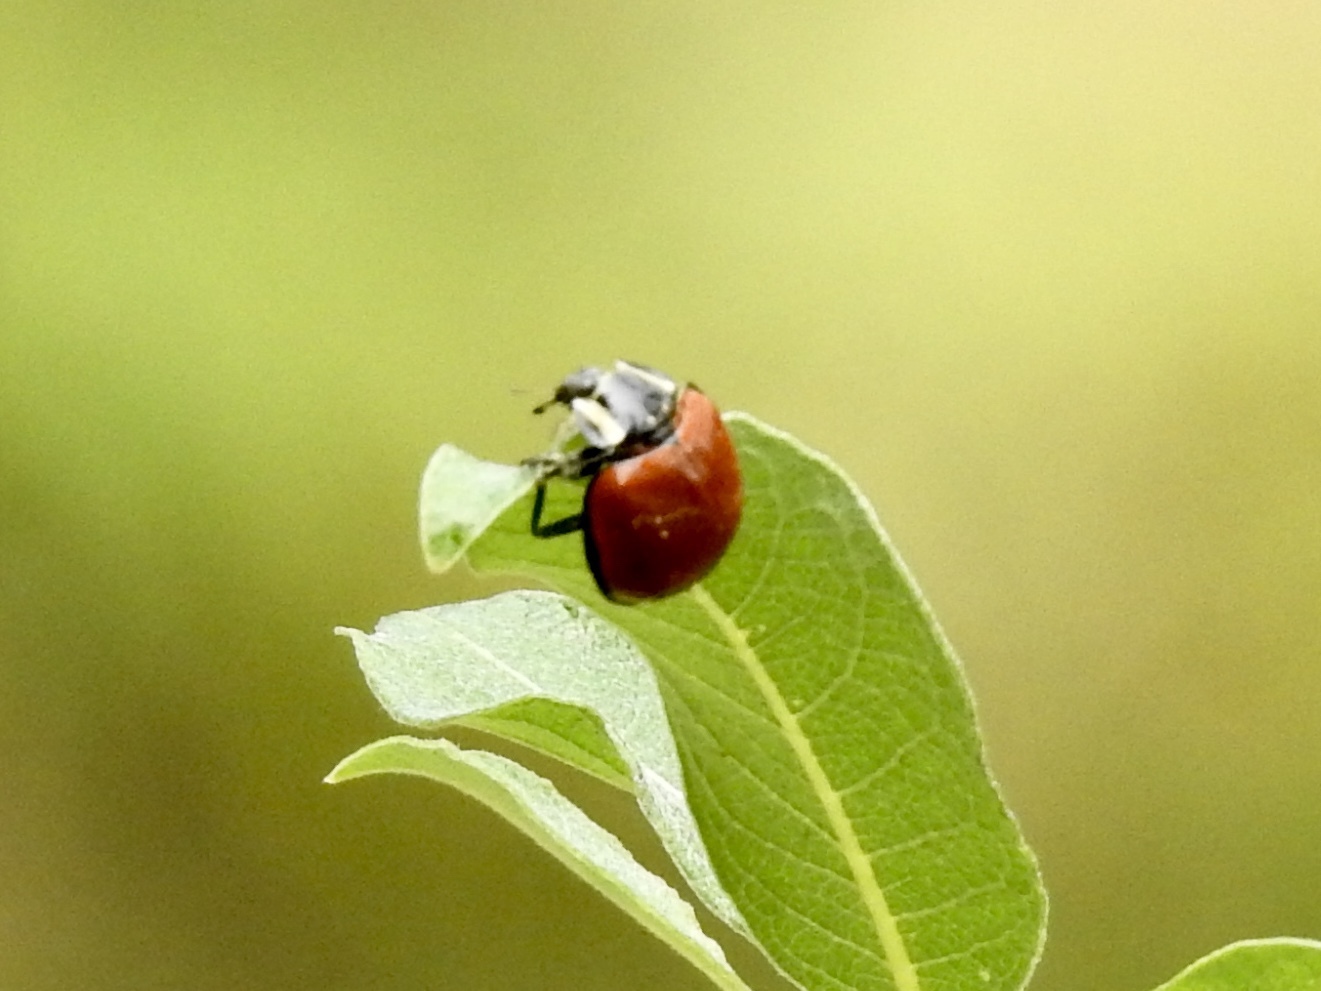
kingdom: Animalia
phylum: Arthropoda
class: Insecta
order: Coleoptera
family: Coccinellidae
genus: Anatis
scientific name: Anatis lecontei
